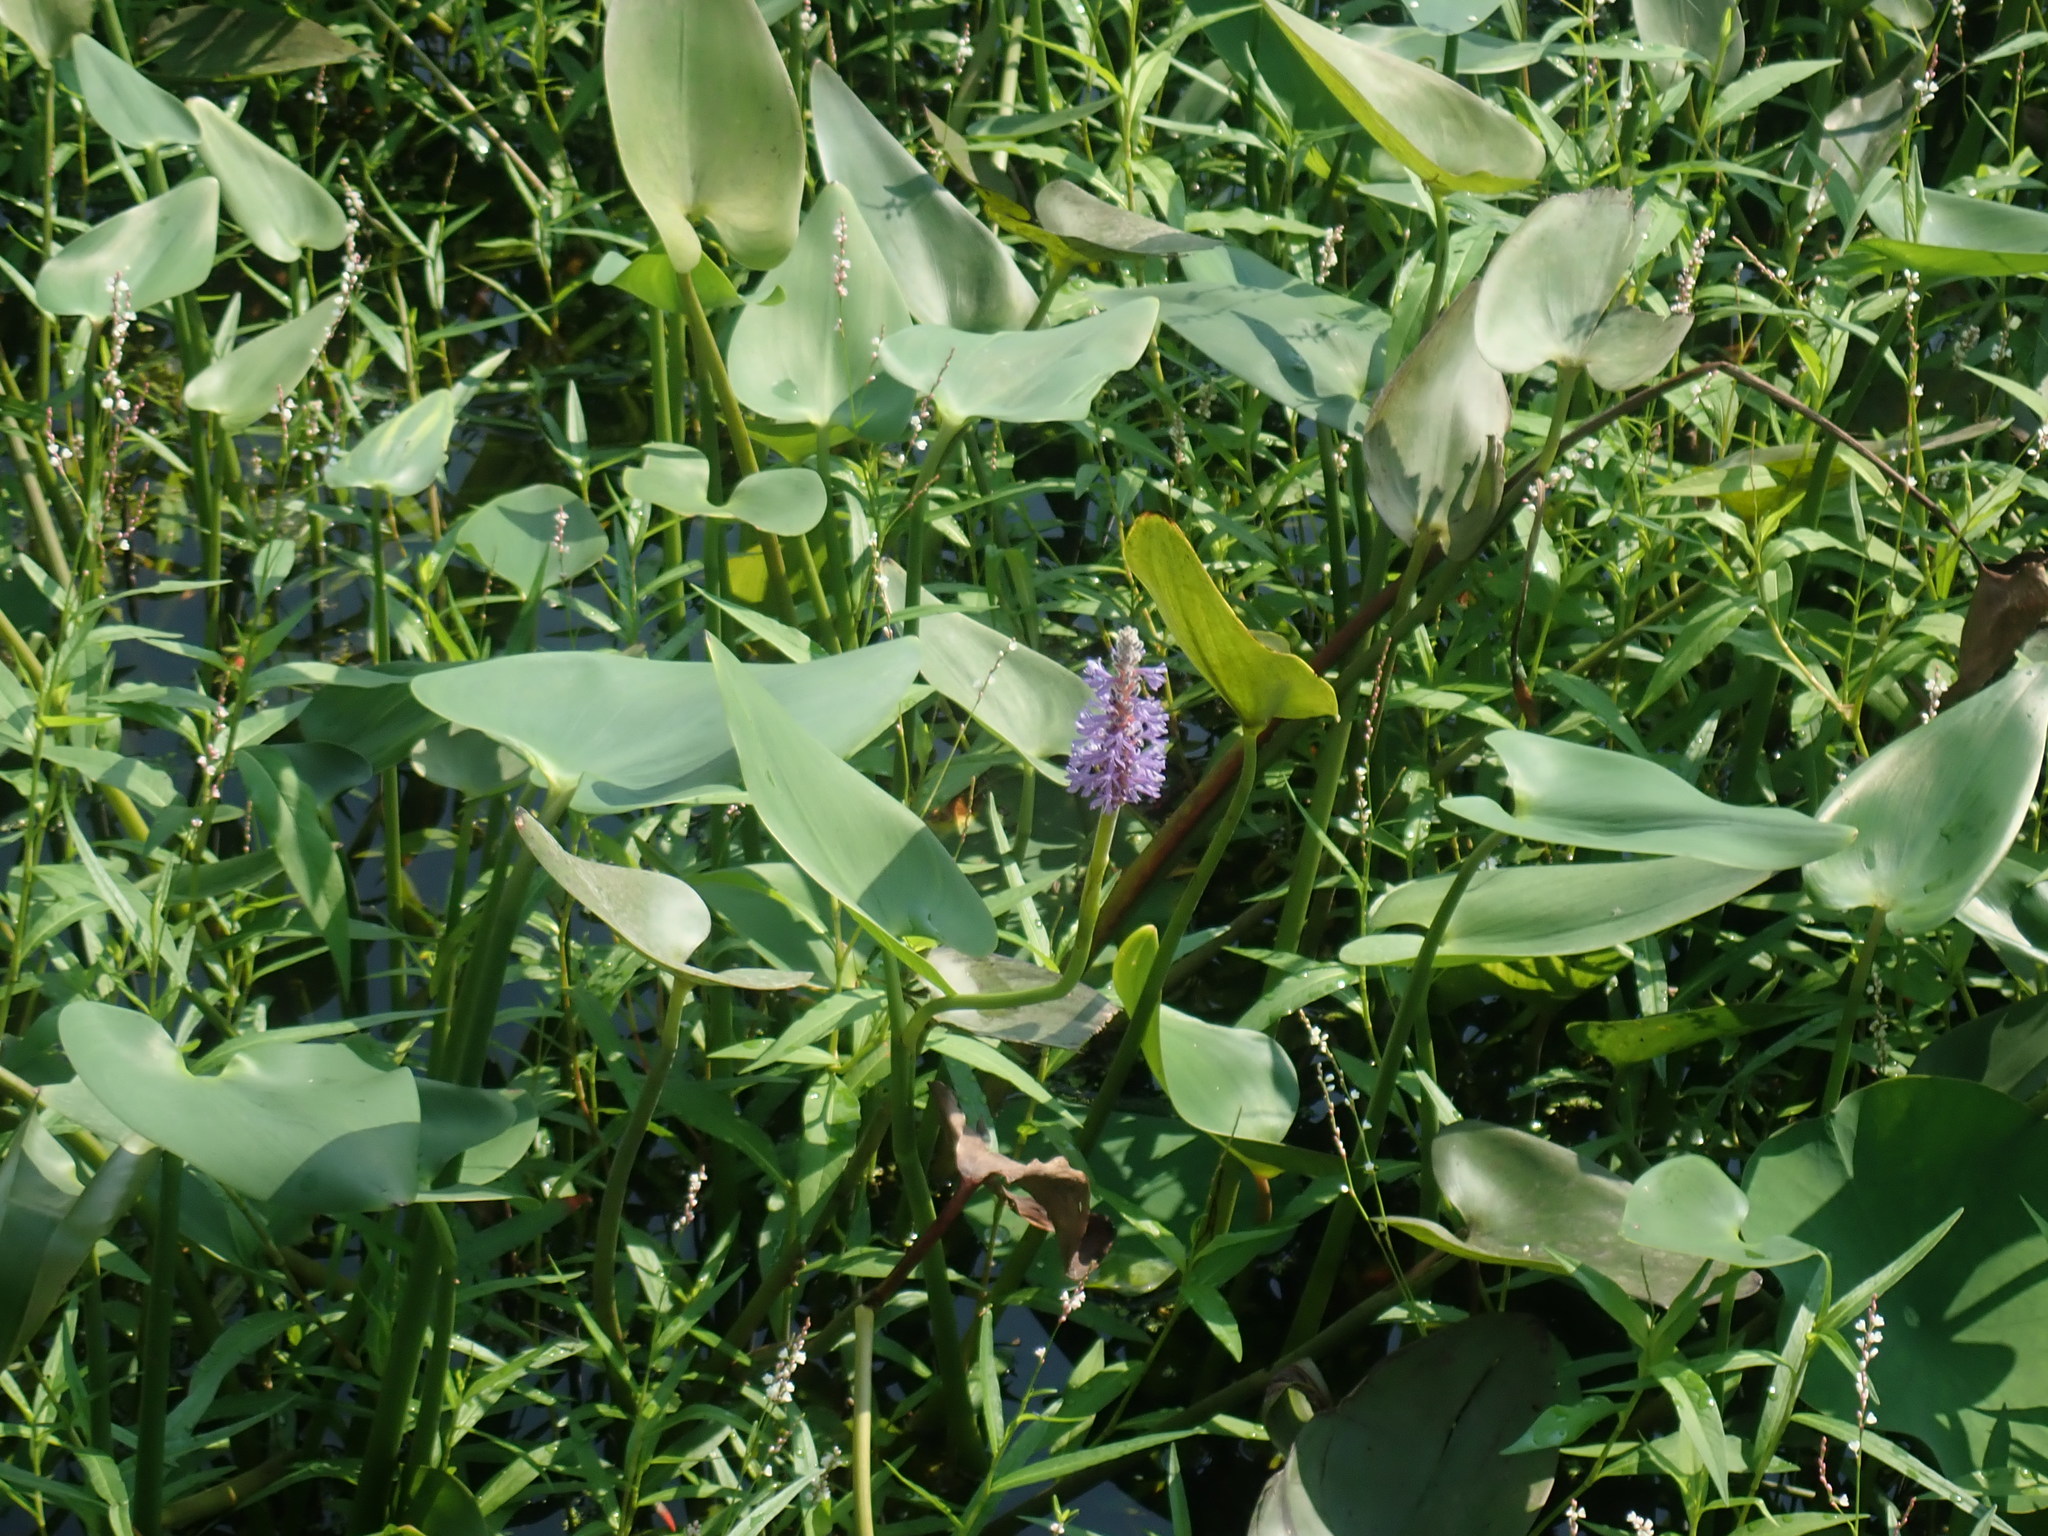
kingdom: Plantae
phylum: Tracheophyta
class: Liliopsida
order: Commelinales
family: Pontederiaceae
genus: Pontederia
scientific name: Pontederia cordata
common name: Pickerelweed
